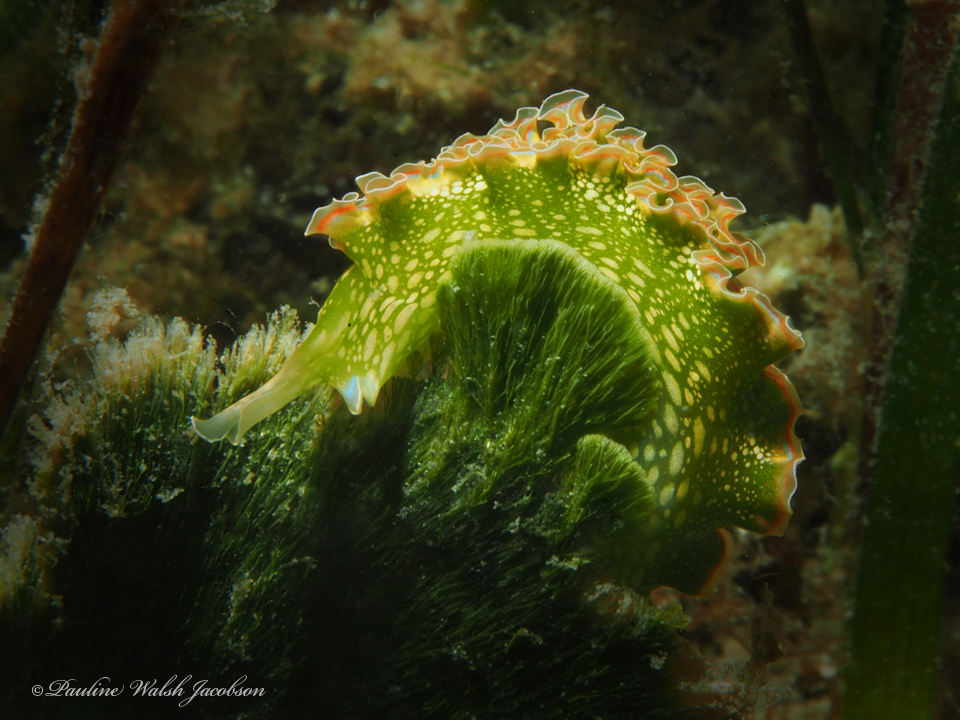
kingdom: Animalia
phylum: Mollusca
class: Gastropoda
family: Plakobranchidae
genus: Elysia
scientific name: Elysia crispata
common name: Lettuce slug
